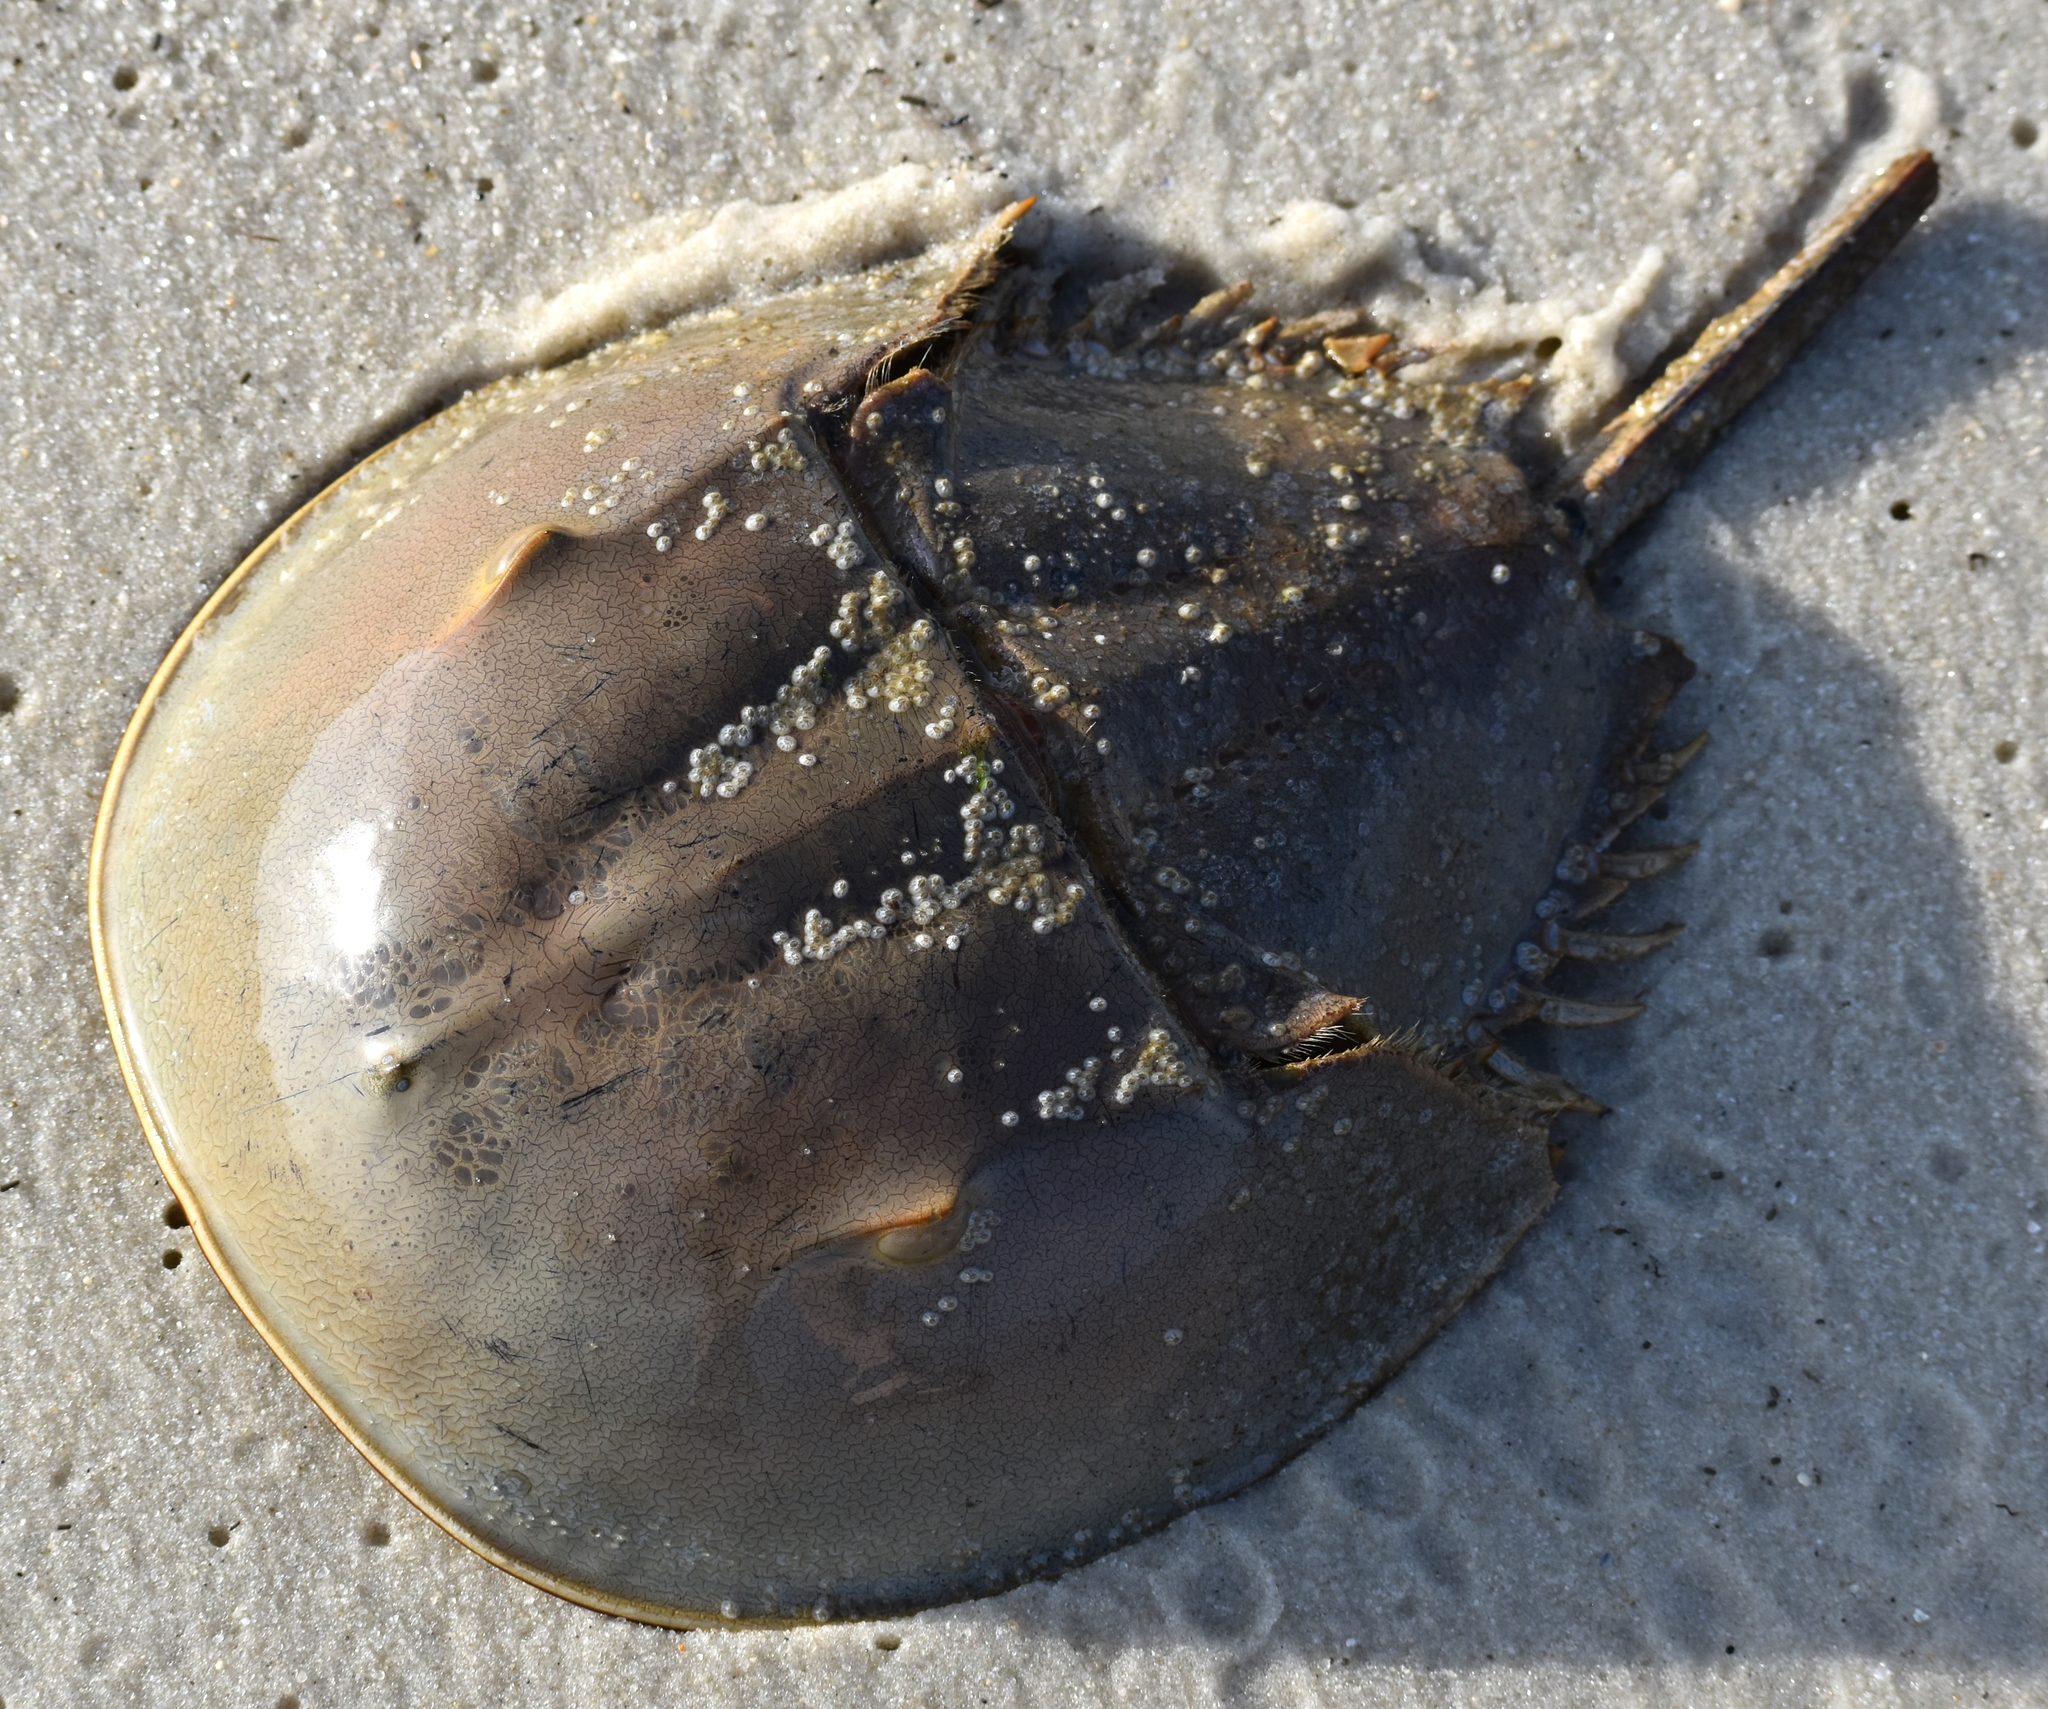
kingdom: Animalia
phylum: Arthropoda
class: Merostomata
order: Xiphosurida
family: Limulidae
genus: Limulus
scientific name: Limulus polyphemus
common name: Horseshoe crab
